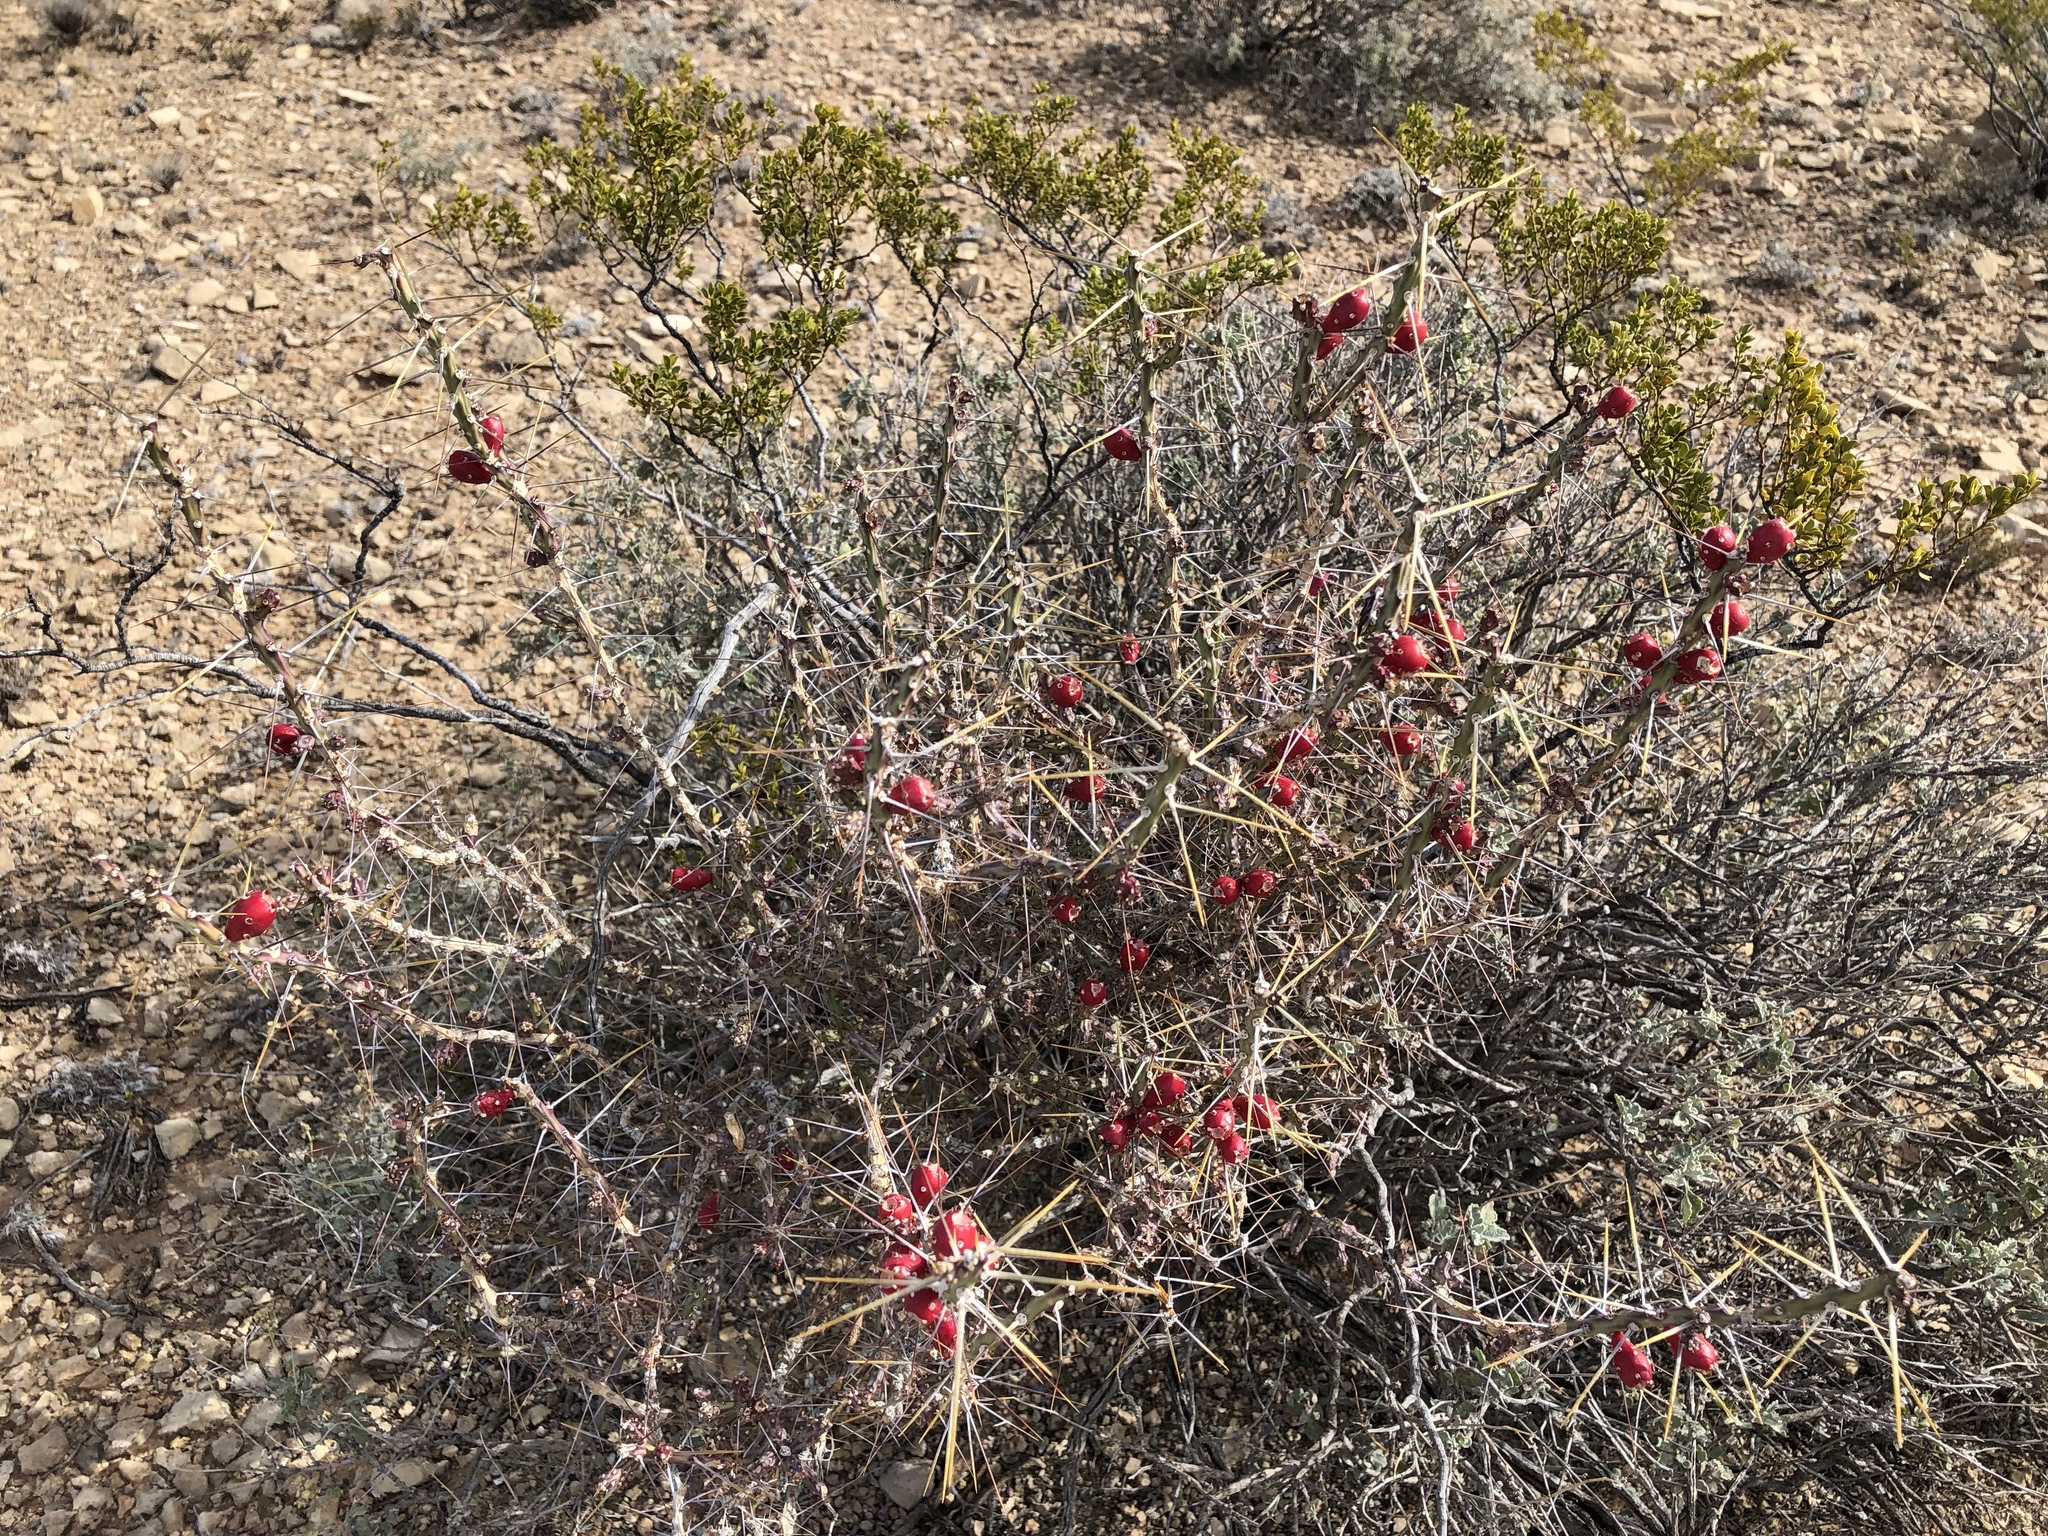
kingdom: Plantae
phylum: Tracheophyta
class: Magnoliopsida
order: Caryophyllales
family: Cactaceae
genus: Cylindropuntia
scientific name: Cylindropuntia leptocaulis
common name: Christmas cactus
